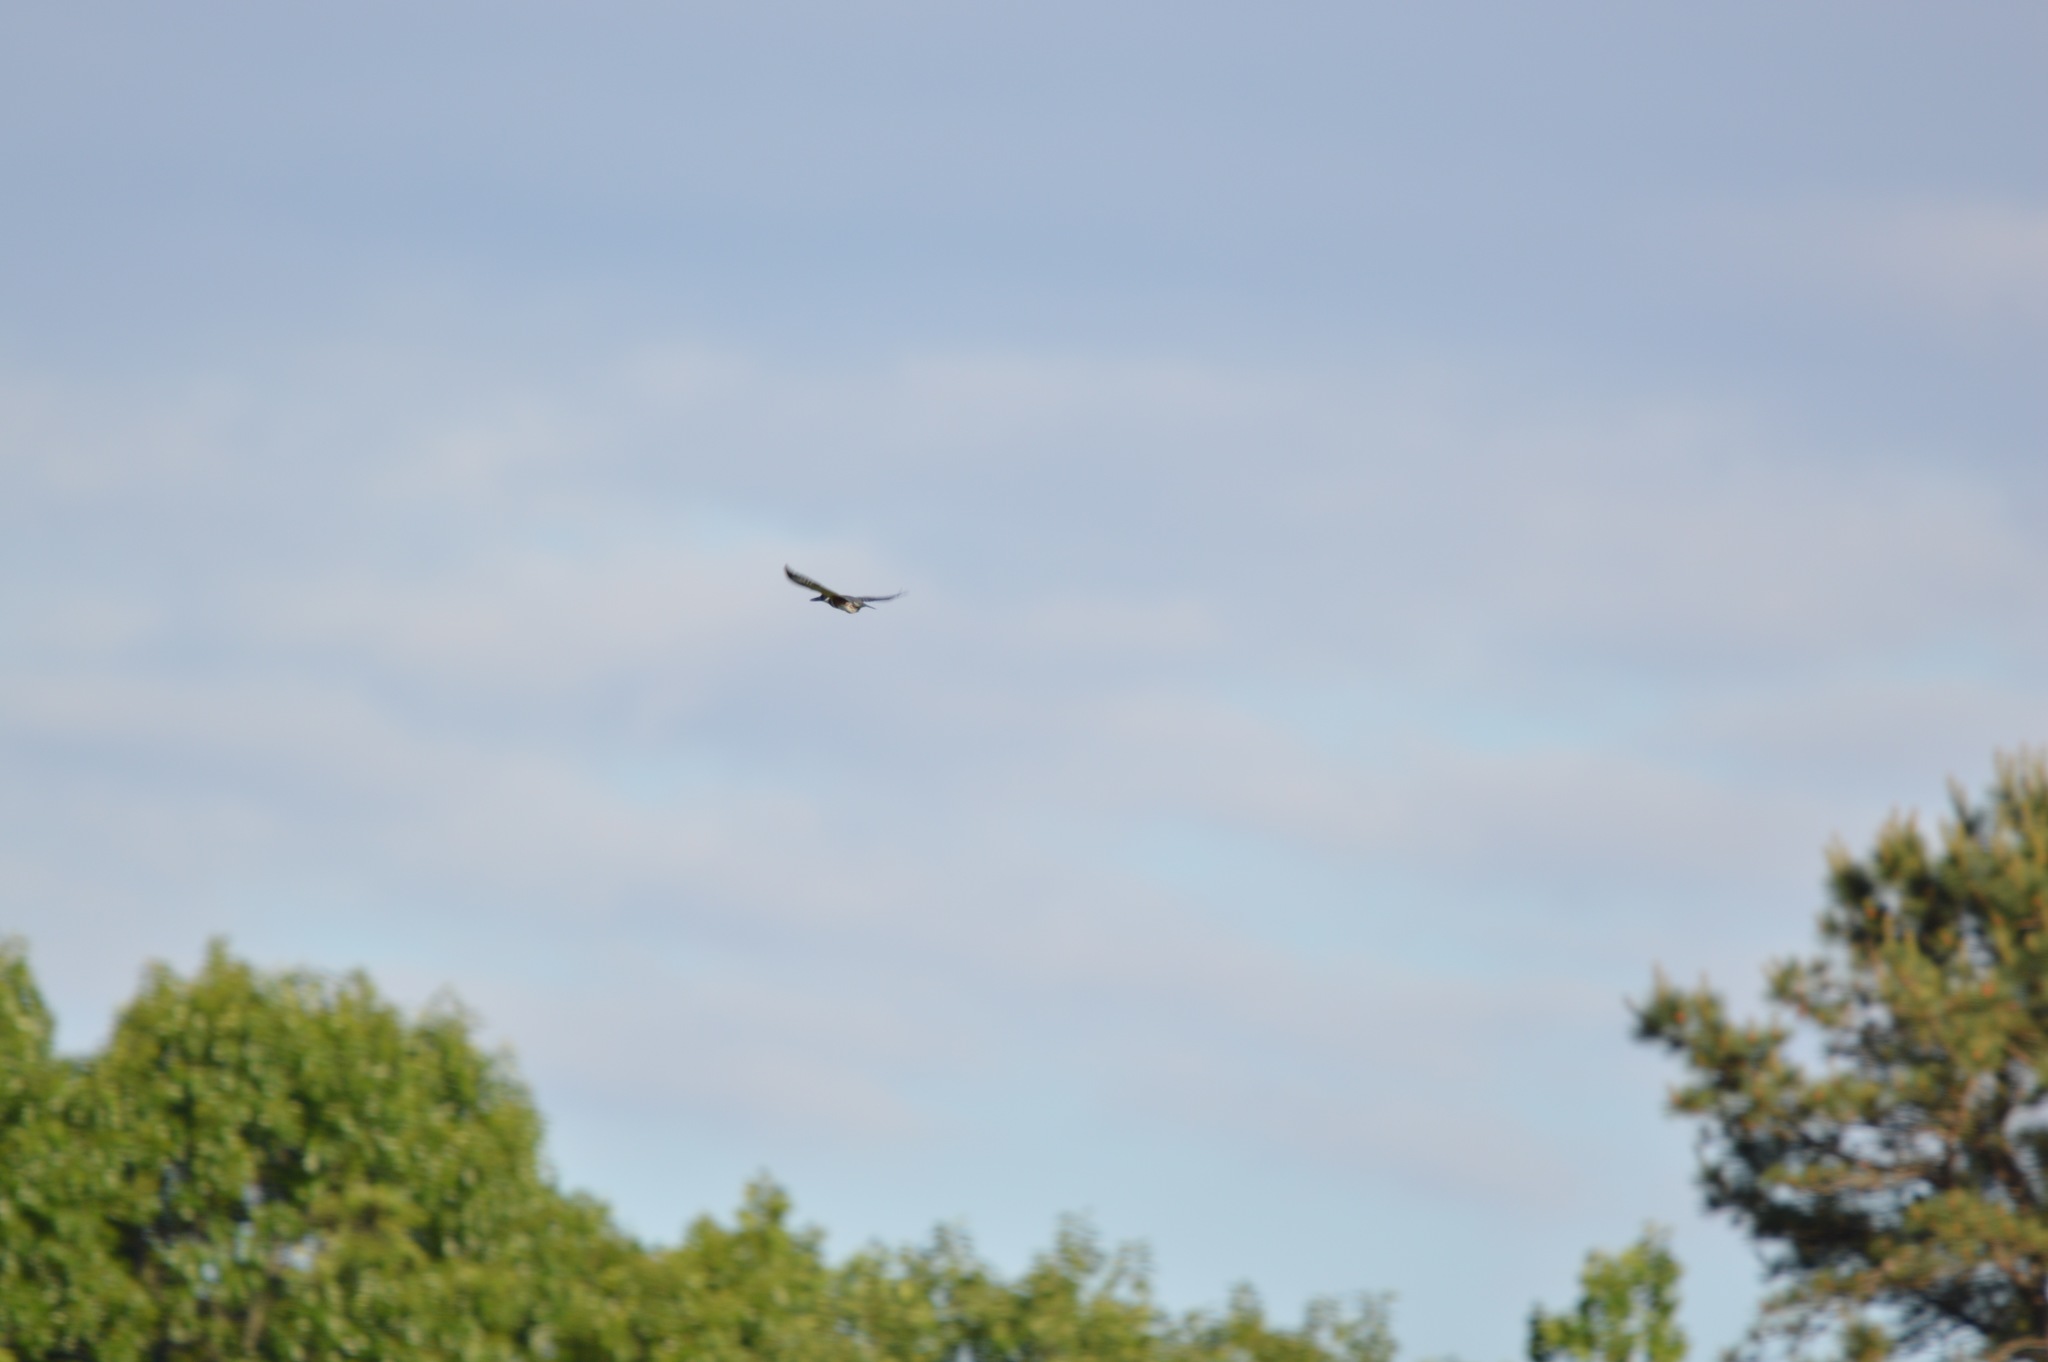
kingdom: Animalia
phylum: Chordata
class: Aves
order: Coraciiformes
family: Alcedinidae
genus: Megaceryle
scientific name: Megaceryle alcyon
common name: Belted kingfisher
